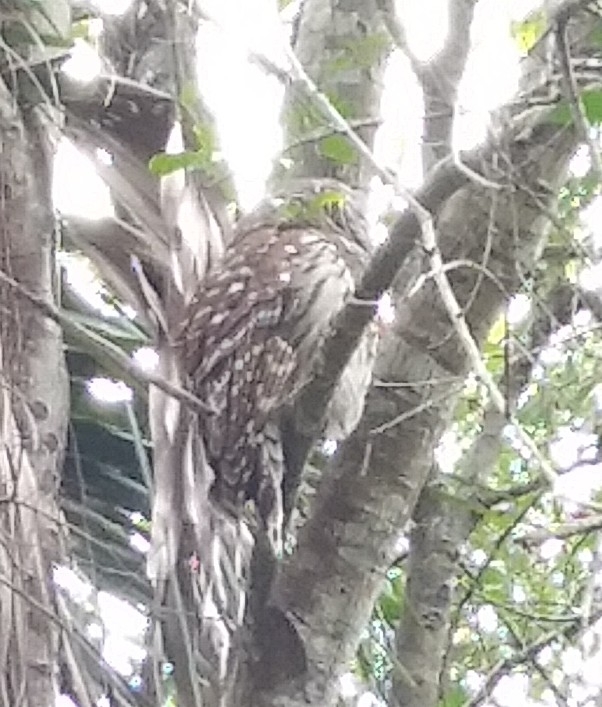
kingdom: Animalia
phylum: Chordata
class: Aves
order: Strigiformes
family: Strigidae
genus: Strix
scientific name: Strix varia
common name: Barred owl
